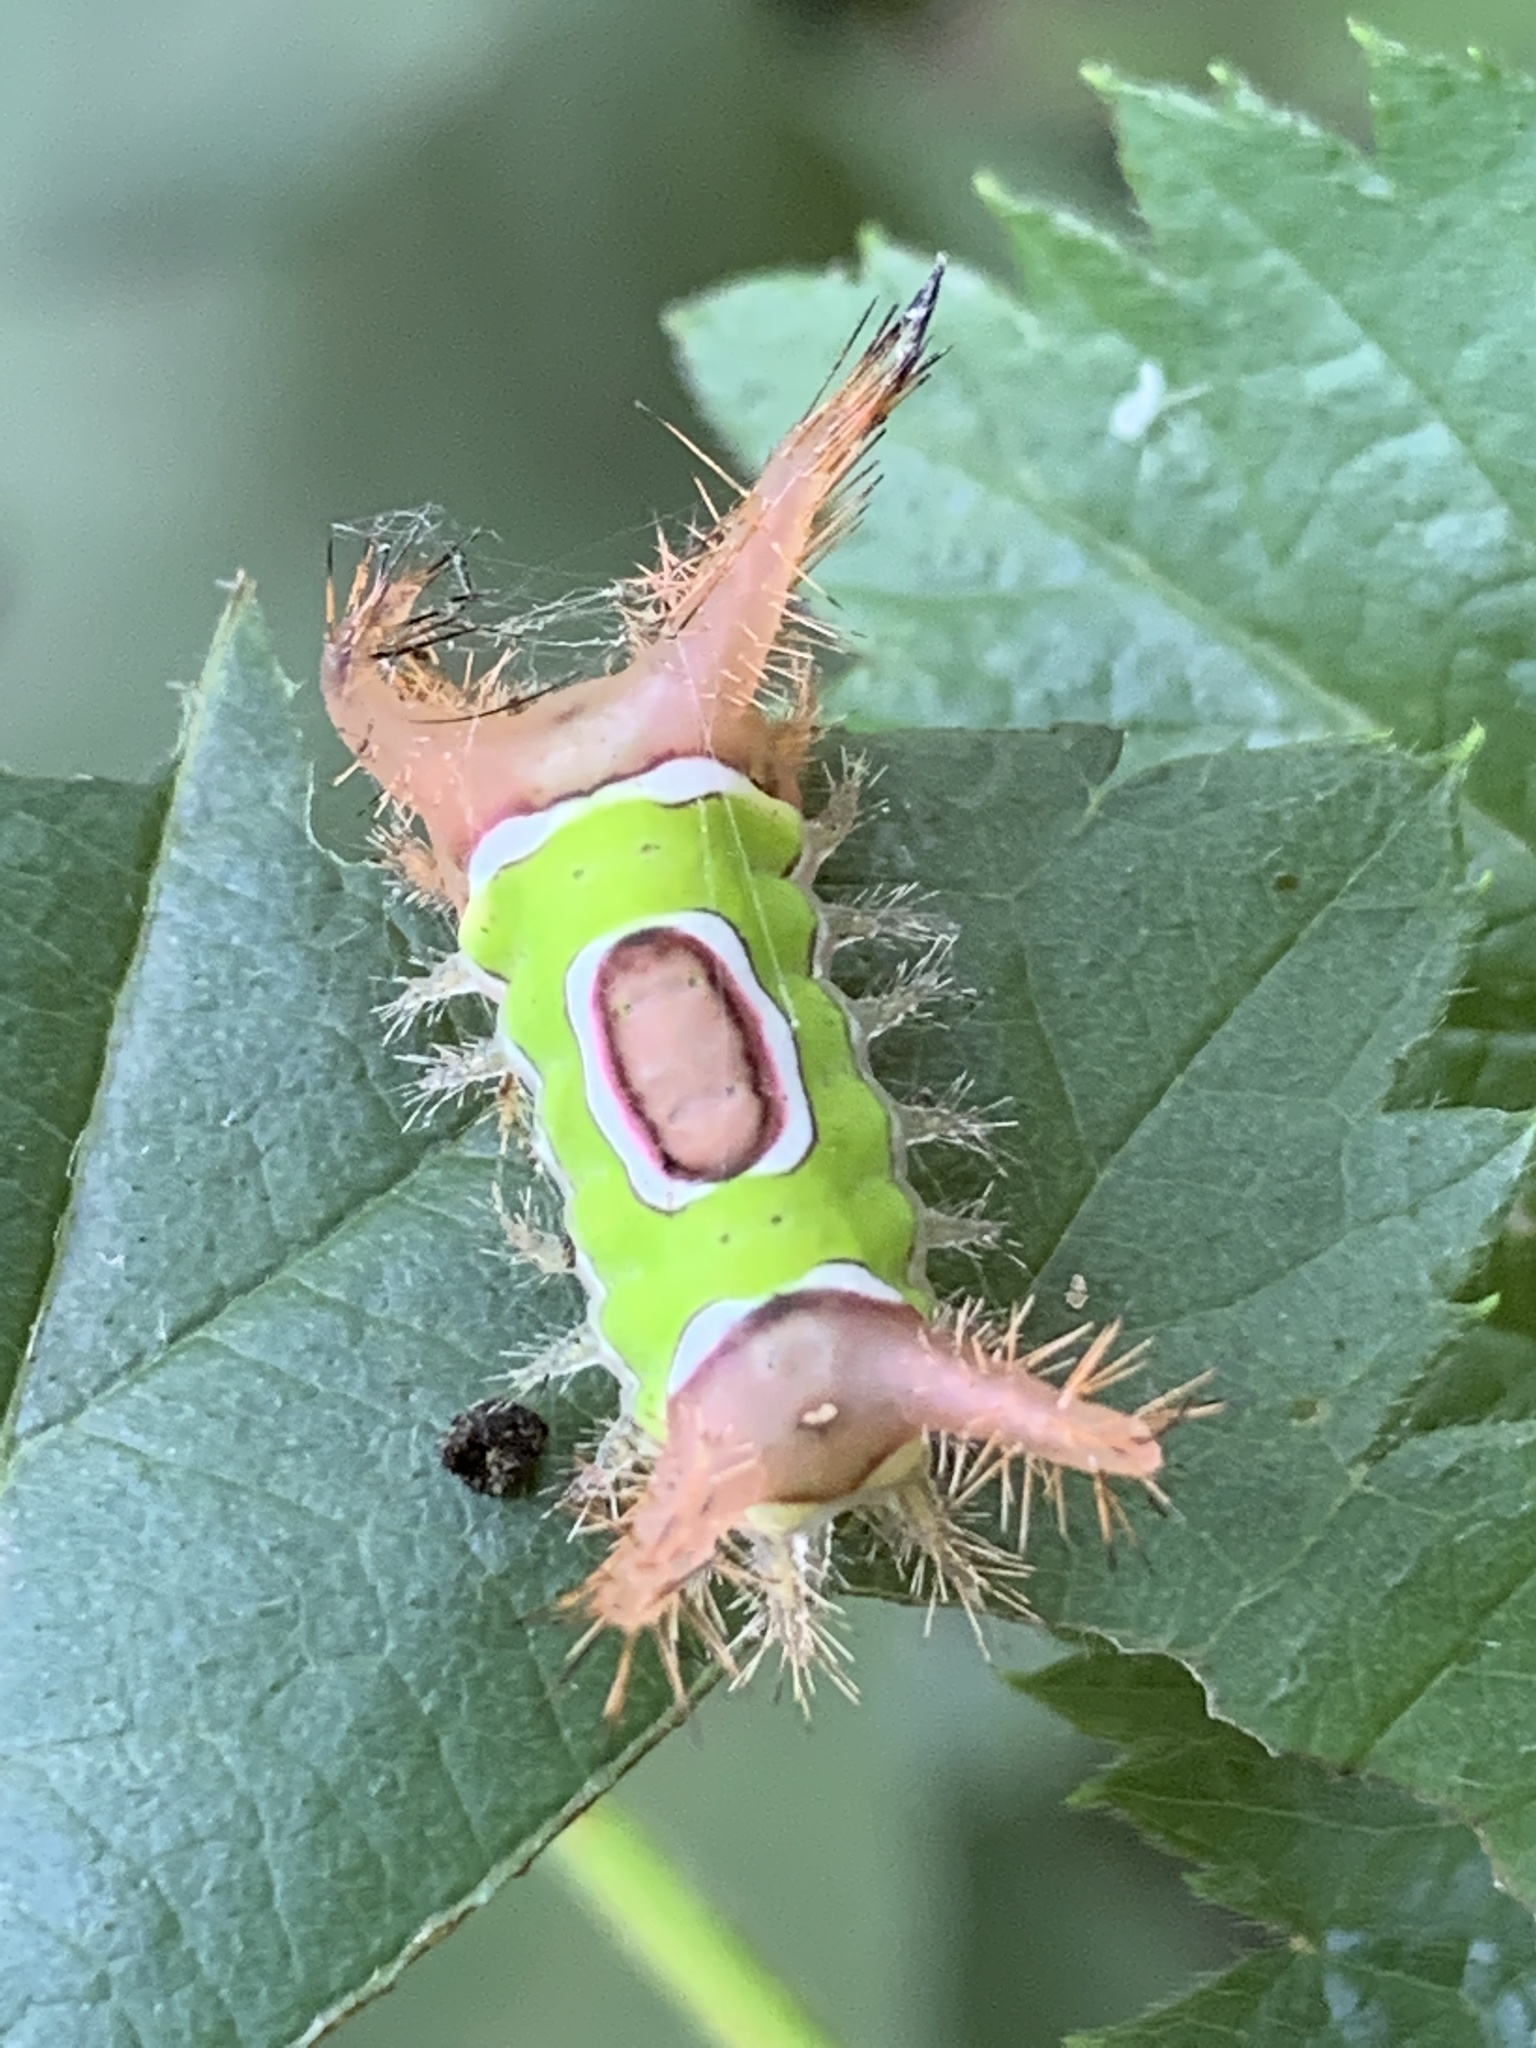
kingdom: Animalia
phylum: Arthropoda
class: Insecta
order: Lepidoptera
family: Limacodidae
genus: Acharia
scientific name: Acharia stimulea
